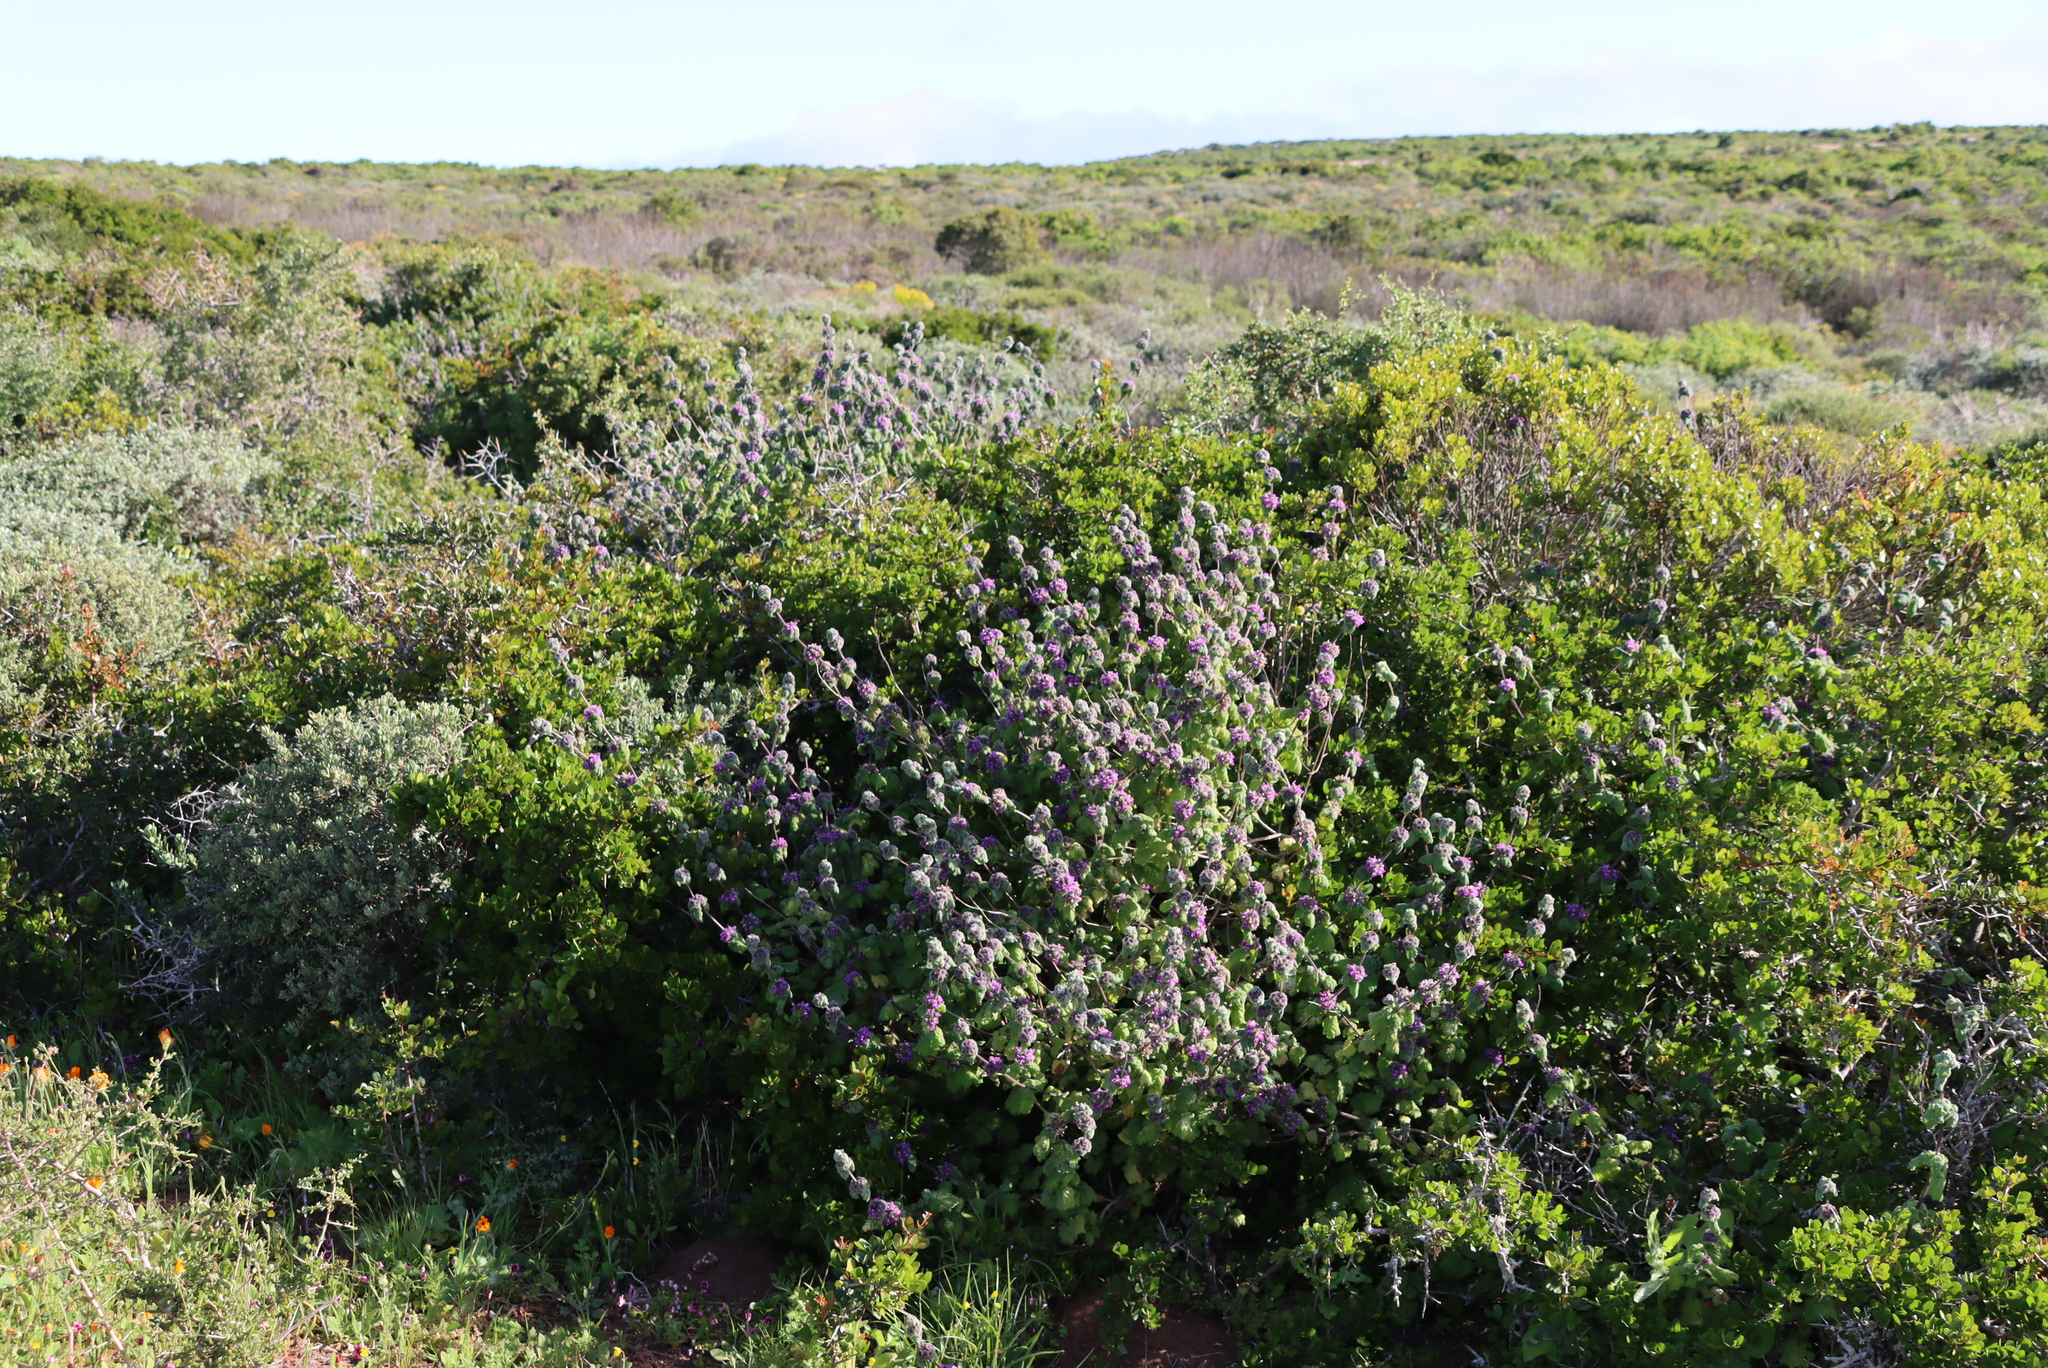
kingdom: Plantae
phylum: Tracheophyta
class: Magnoliopsida
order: Lamiales
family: Lamiaceae
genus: Pseudodictamnus
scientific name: Pseudodictamnus africanus
